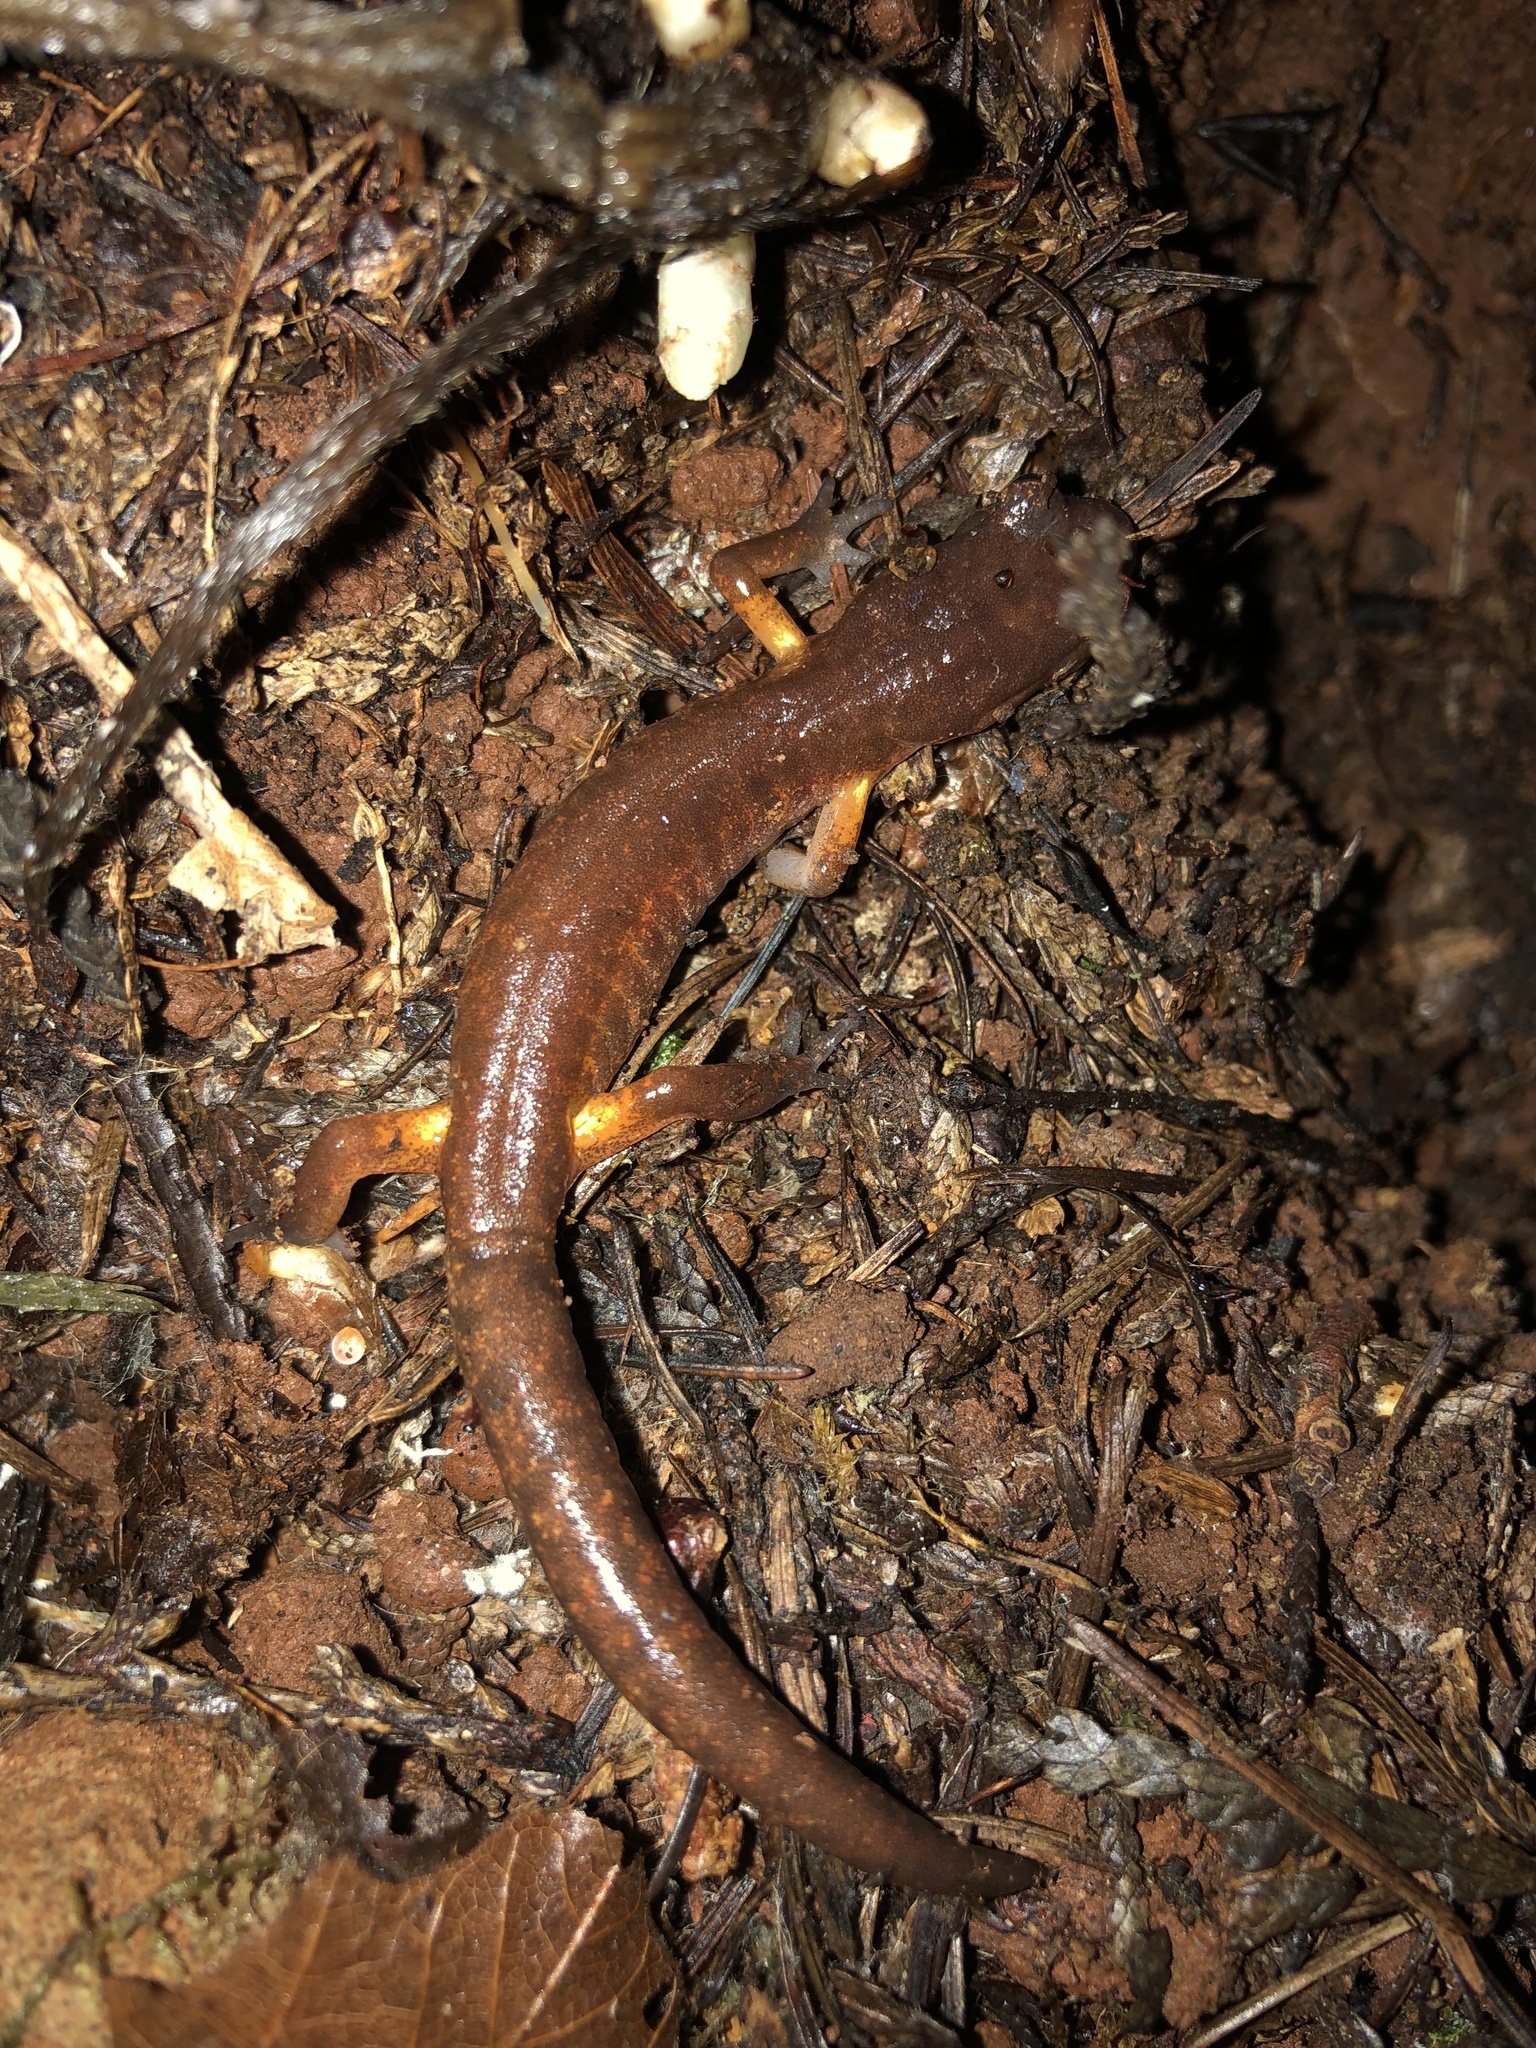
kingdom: Animalia
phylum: Chordata
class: Amphibia
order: Caudata
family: Plethodontidae
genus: Ensatina
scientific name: Ensatina eschscholtzii
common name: Ensatina
